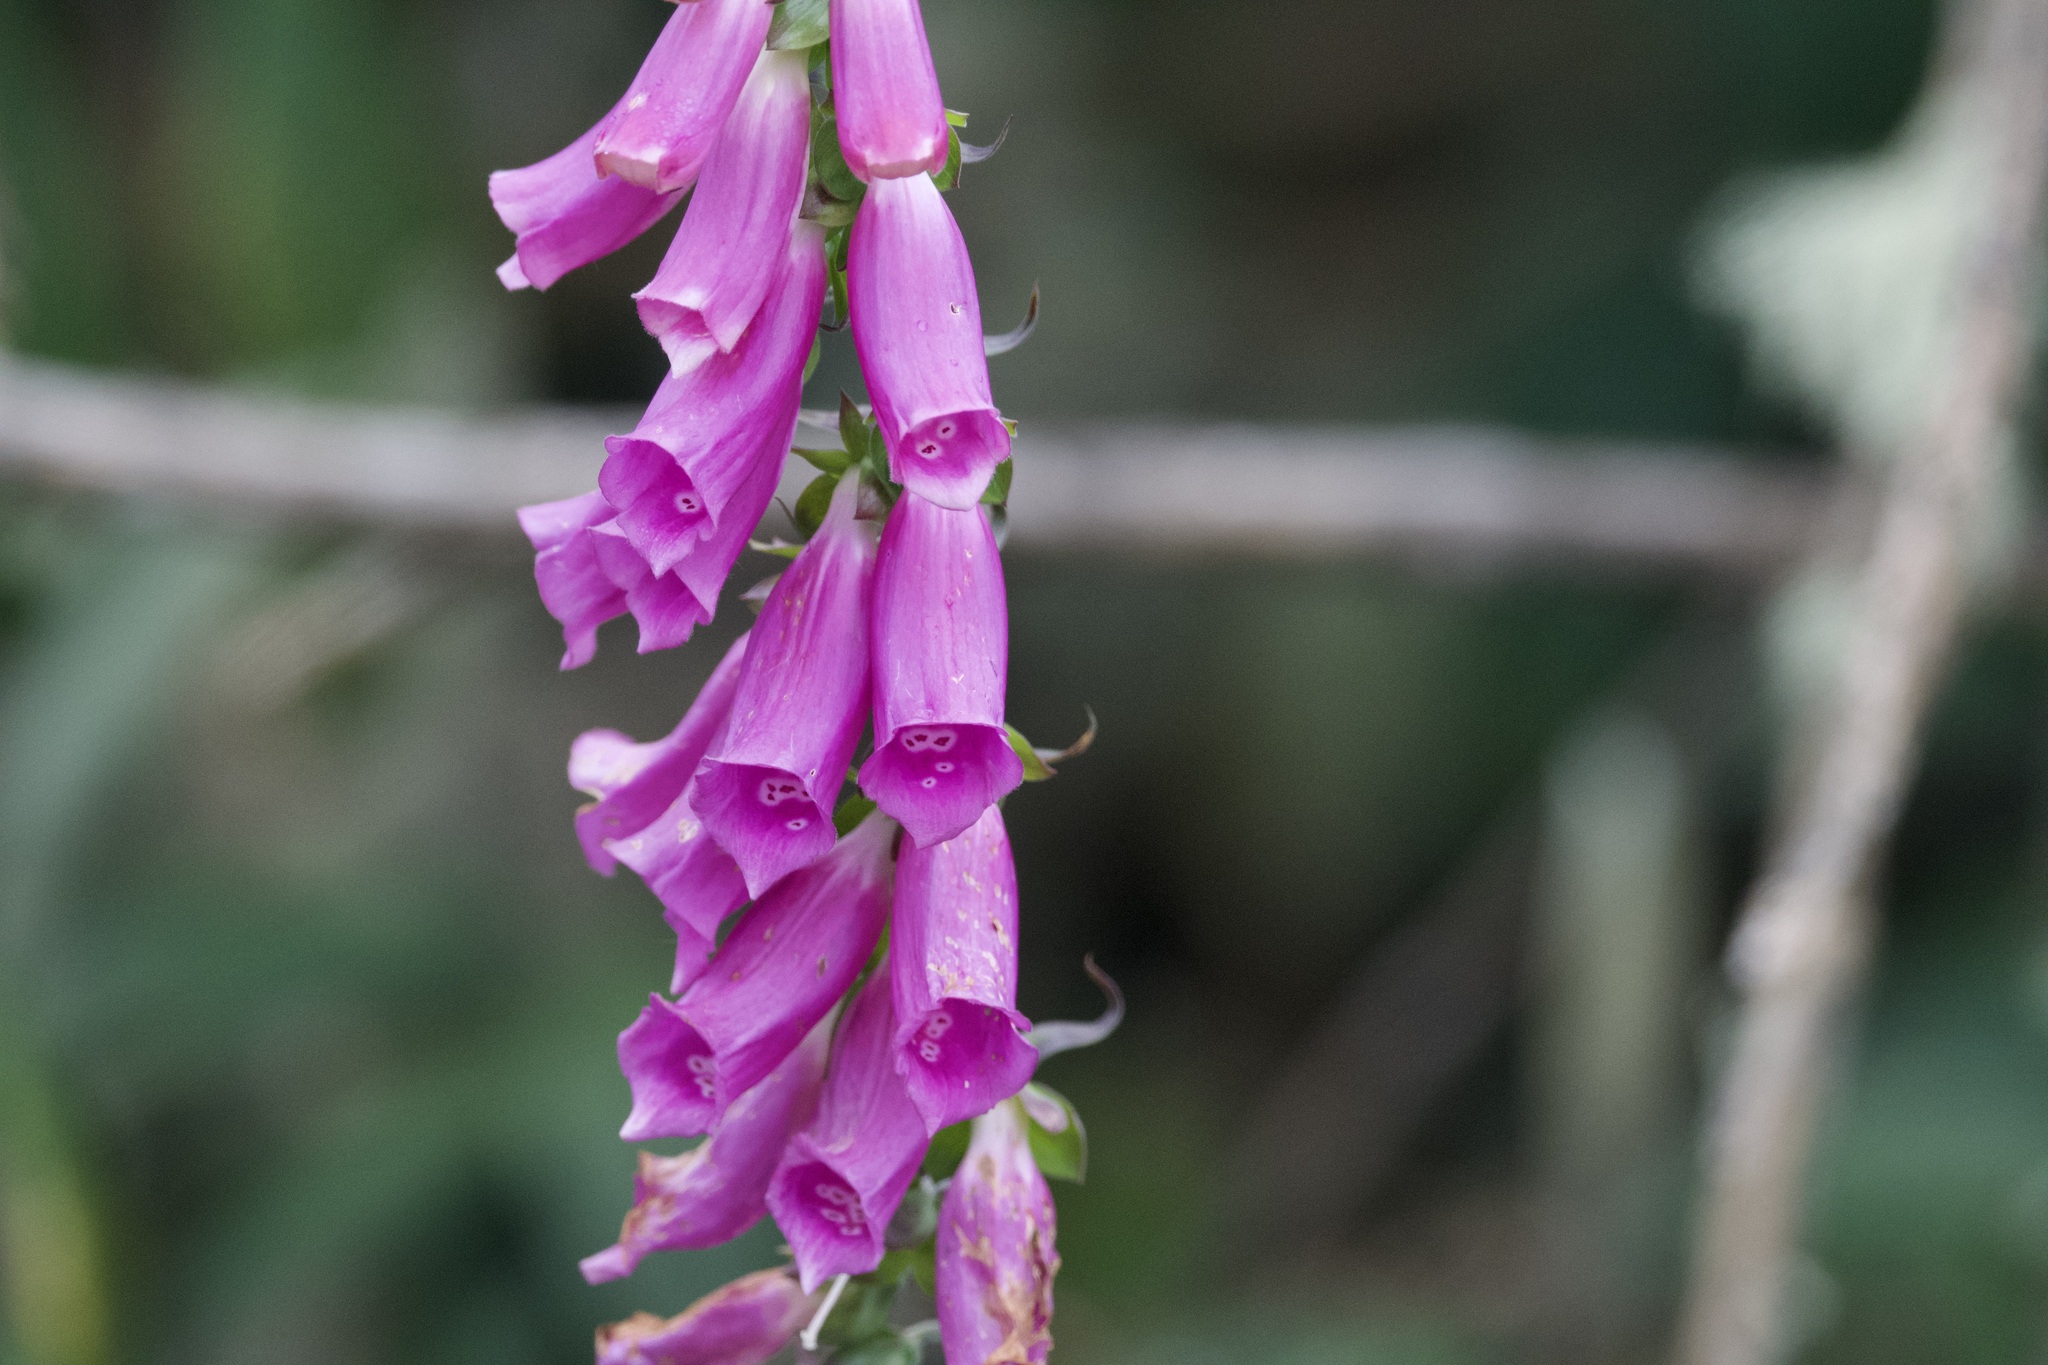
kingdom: Plantae
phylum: Tracheophyta
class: Magnoliopsida
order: Lamiales
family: Plantaginaceae
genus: Digitalis
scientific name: Digitalis purpurea
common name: Foxglove
